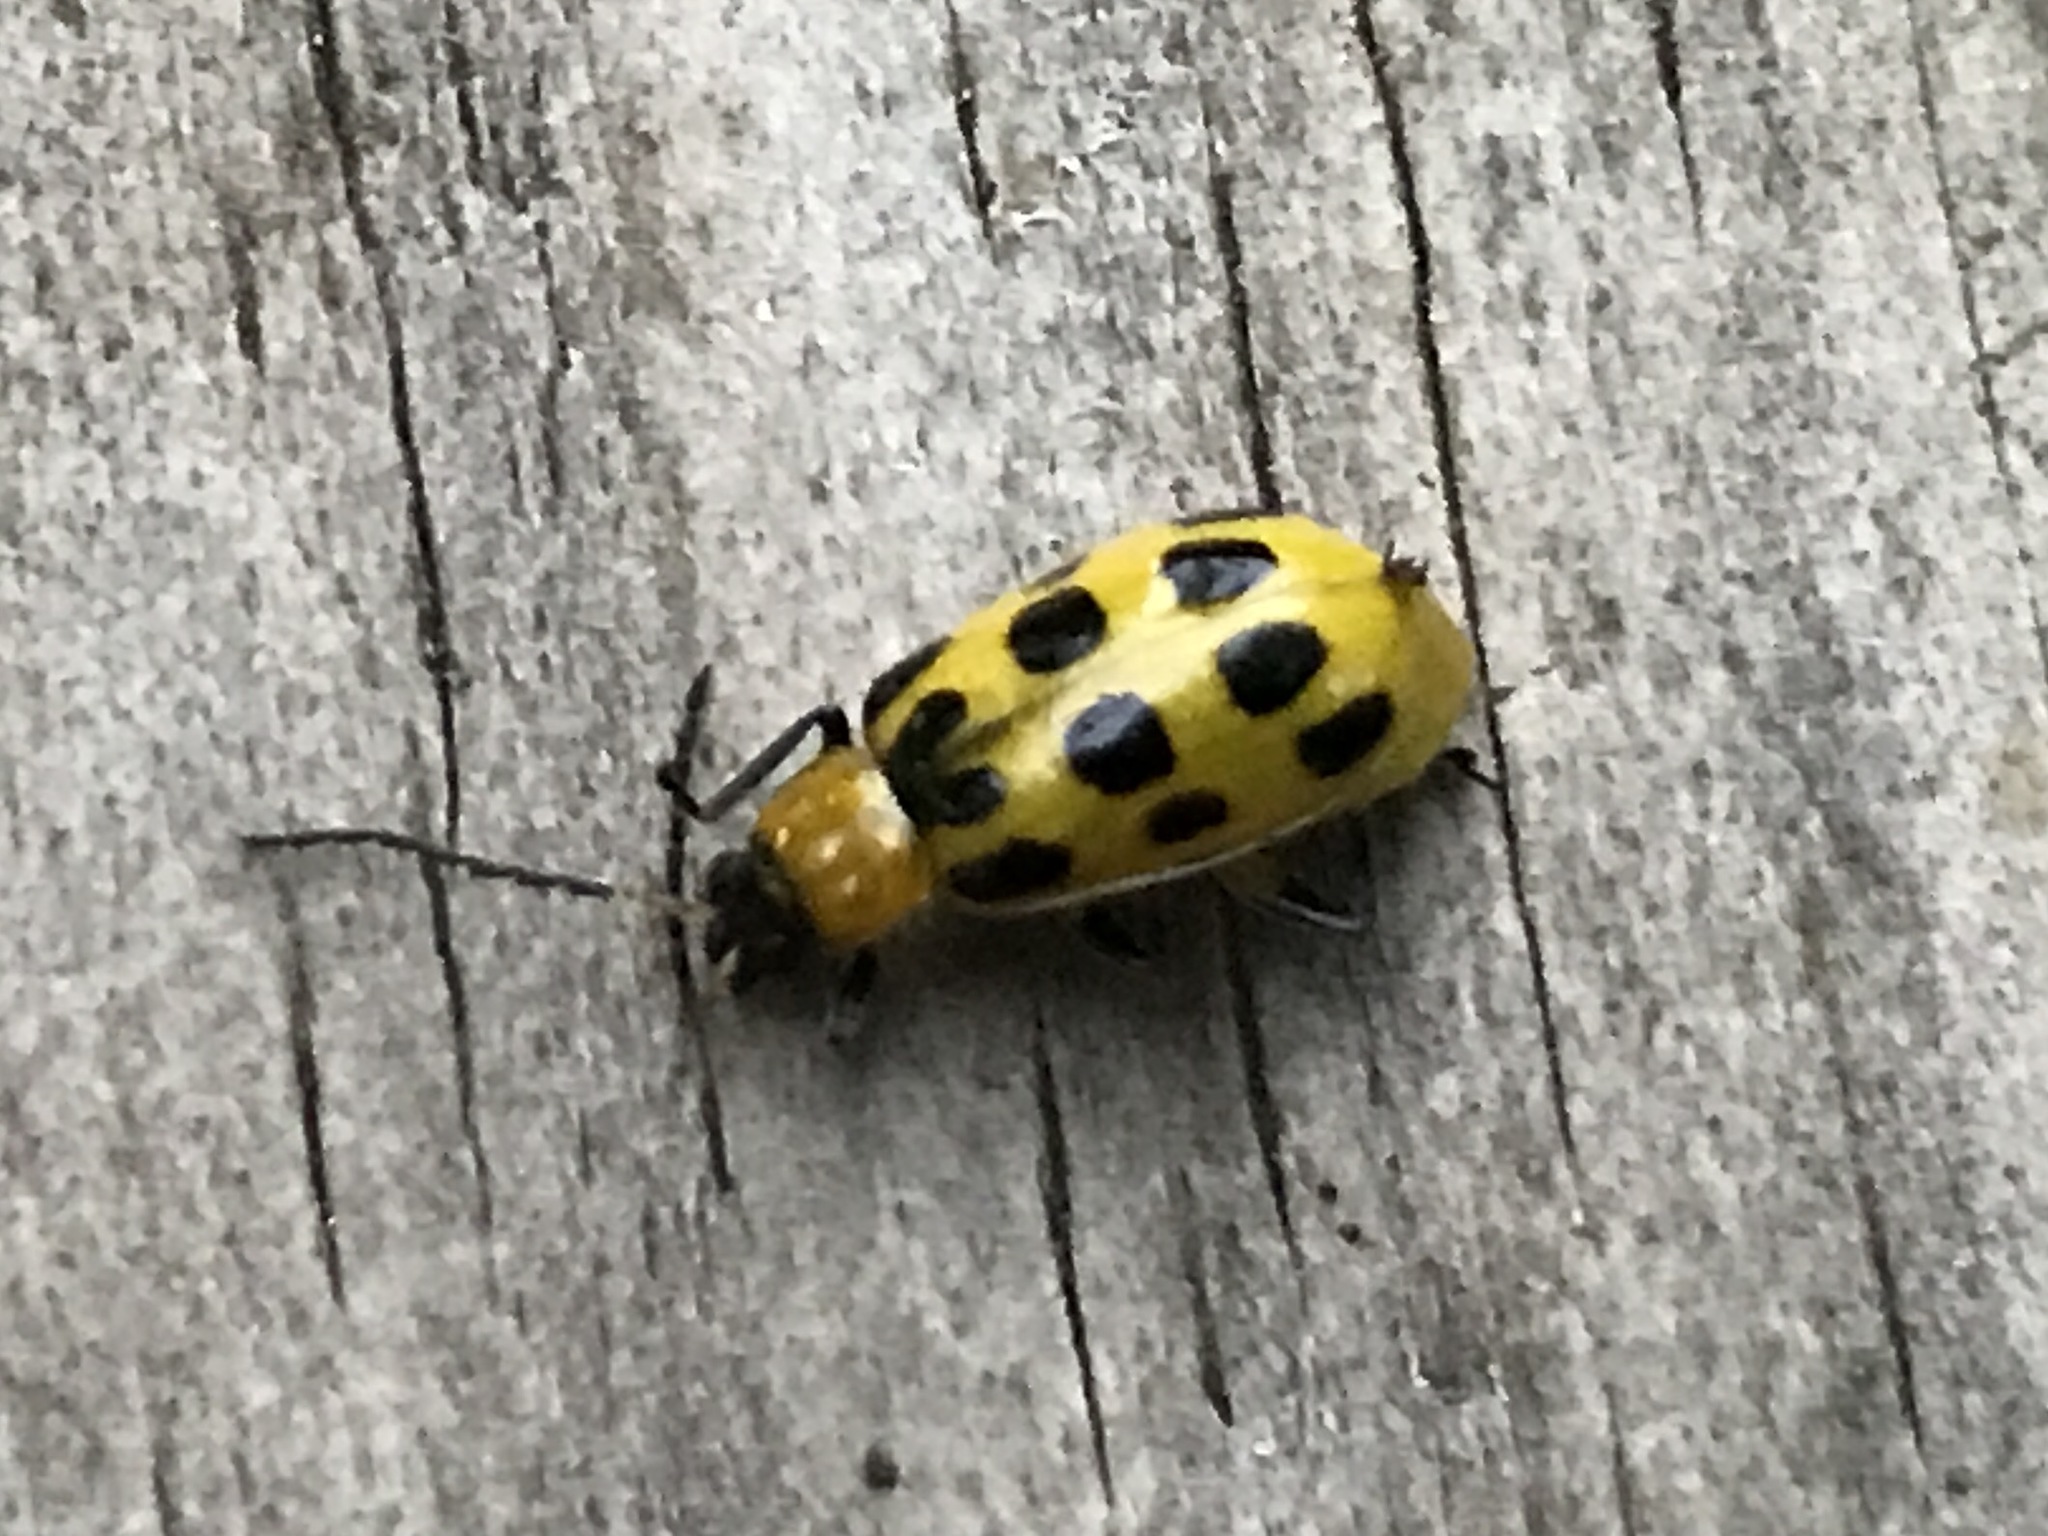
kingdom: Animalia
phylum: Arthropoda
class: Insecta
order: Coleoptera
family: Chrysomelidae
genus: Diabrotica
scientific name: Diabrotica undecimpunctata
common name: Spotted cucumber beetle
